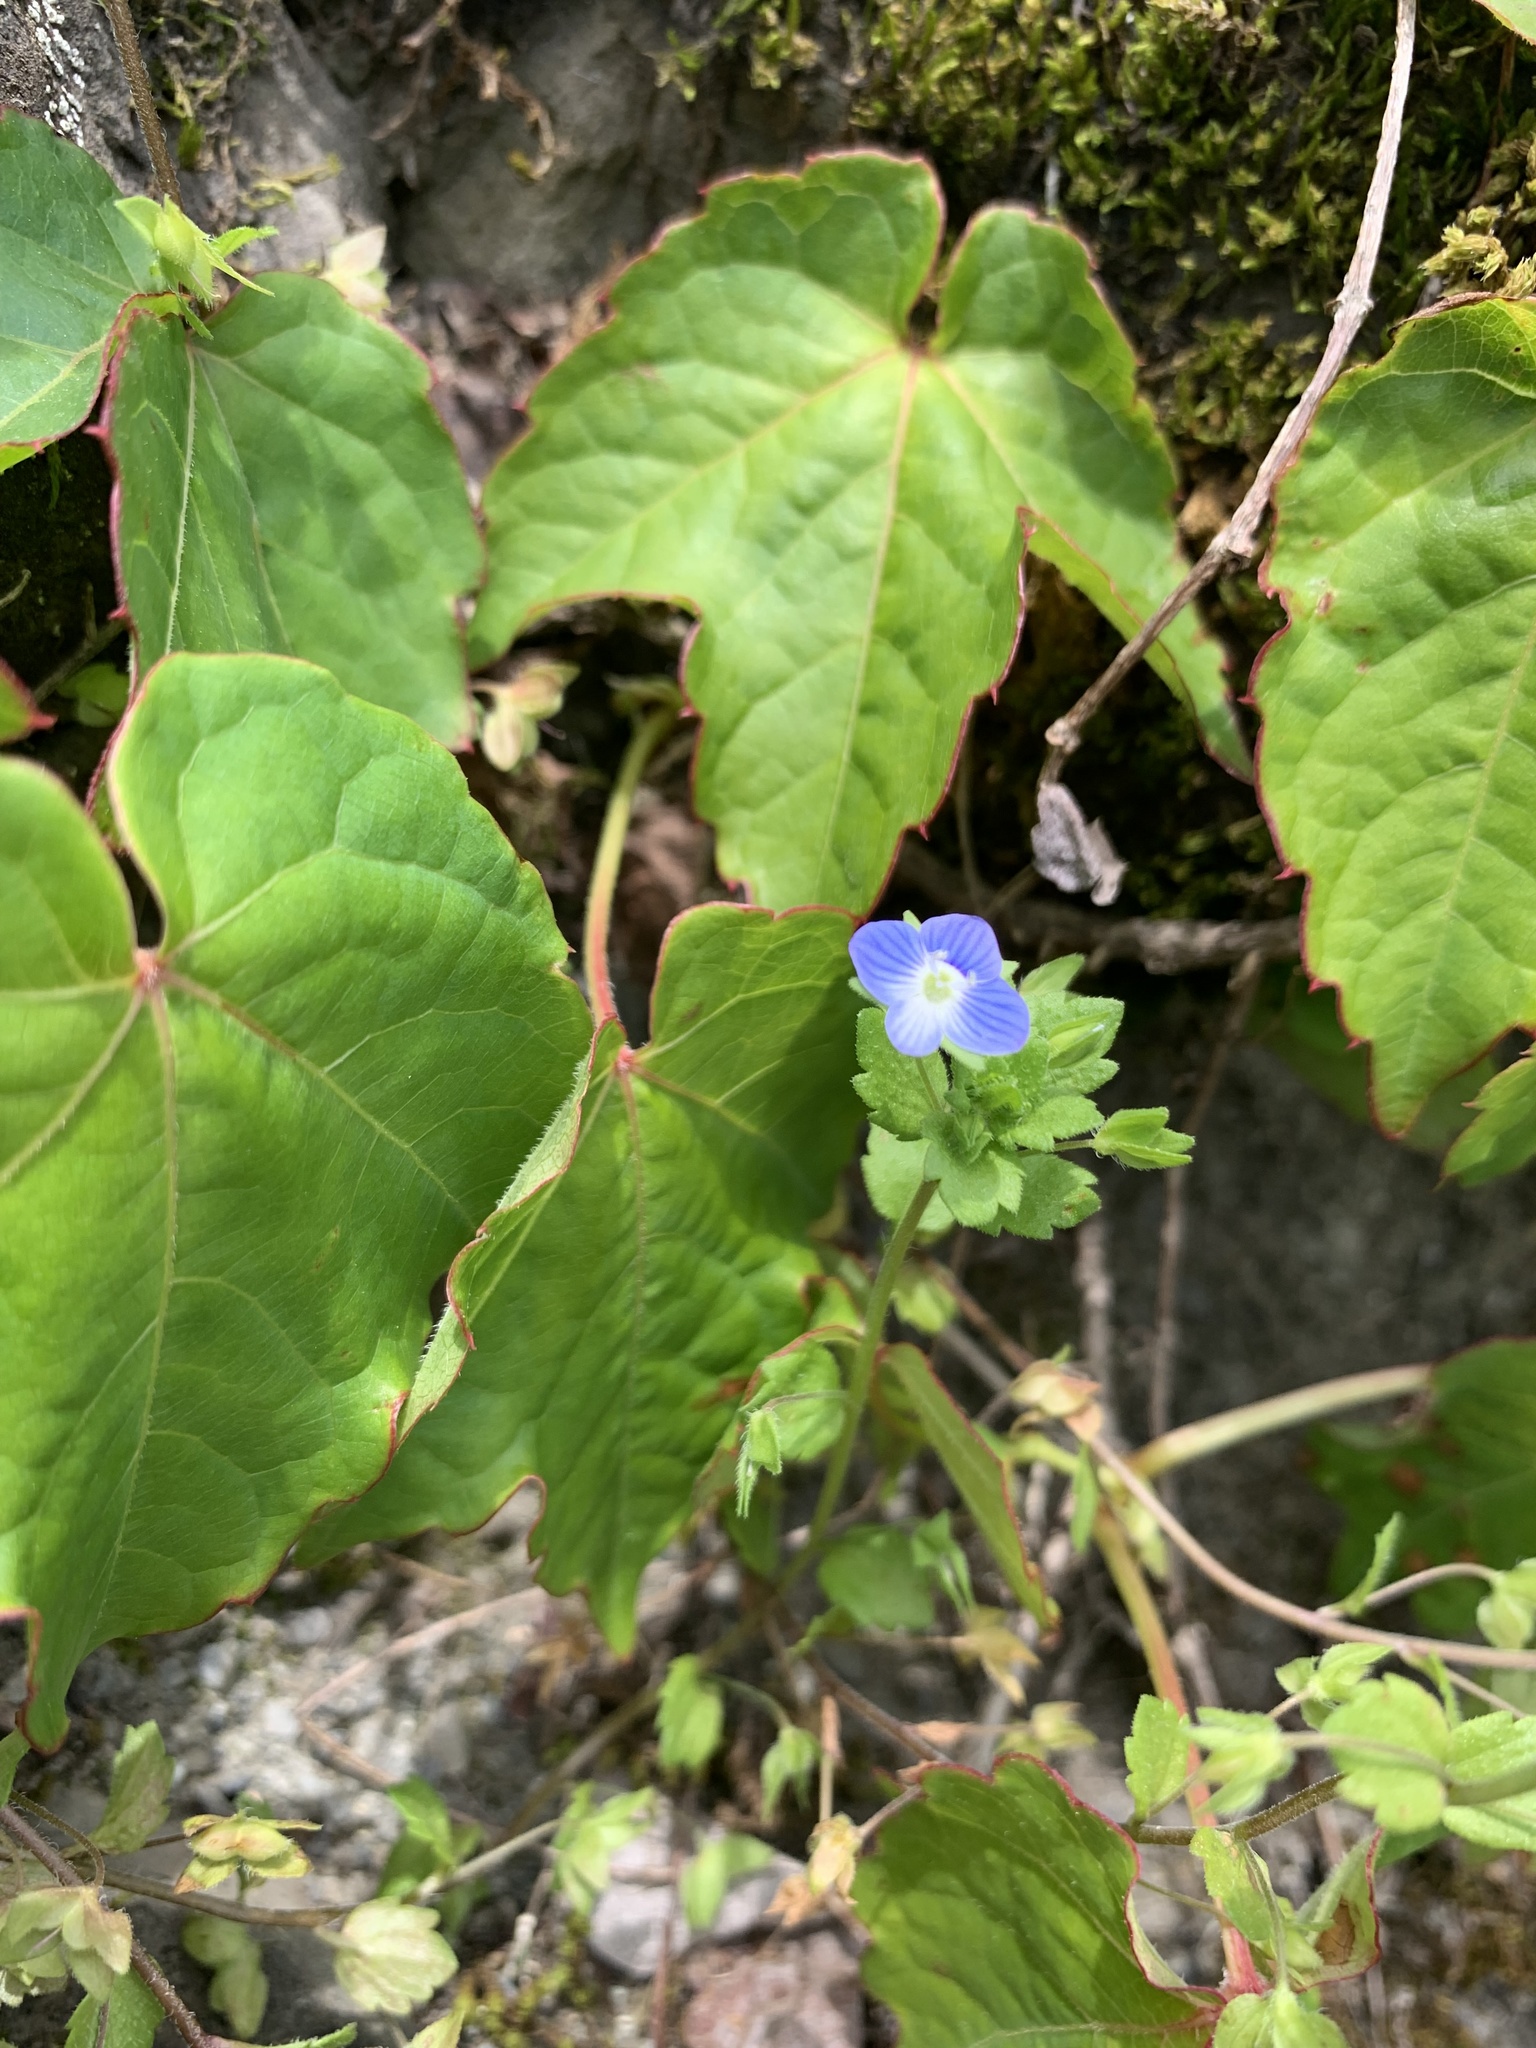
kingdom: Plantae
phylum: Tracheophyta
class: Magnoliopsida
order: Lamiales
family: Plantaginaceae
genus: Veronica
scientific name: Veronica persica
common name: Common field-speedwell
